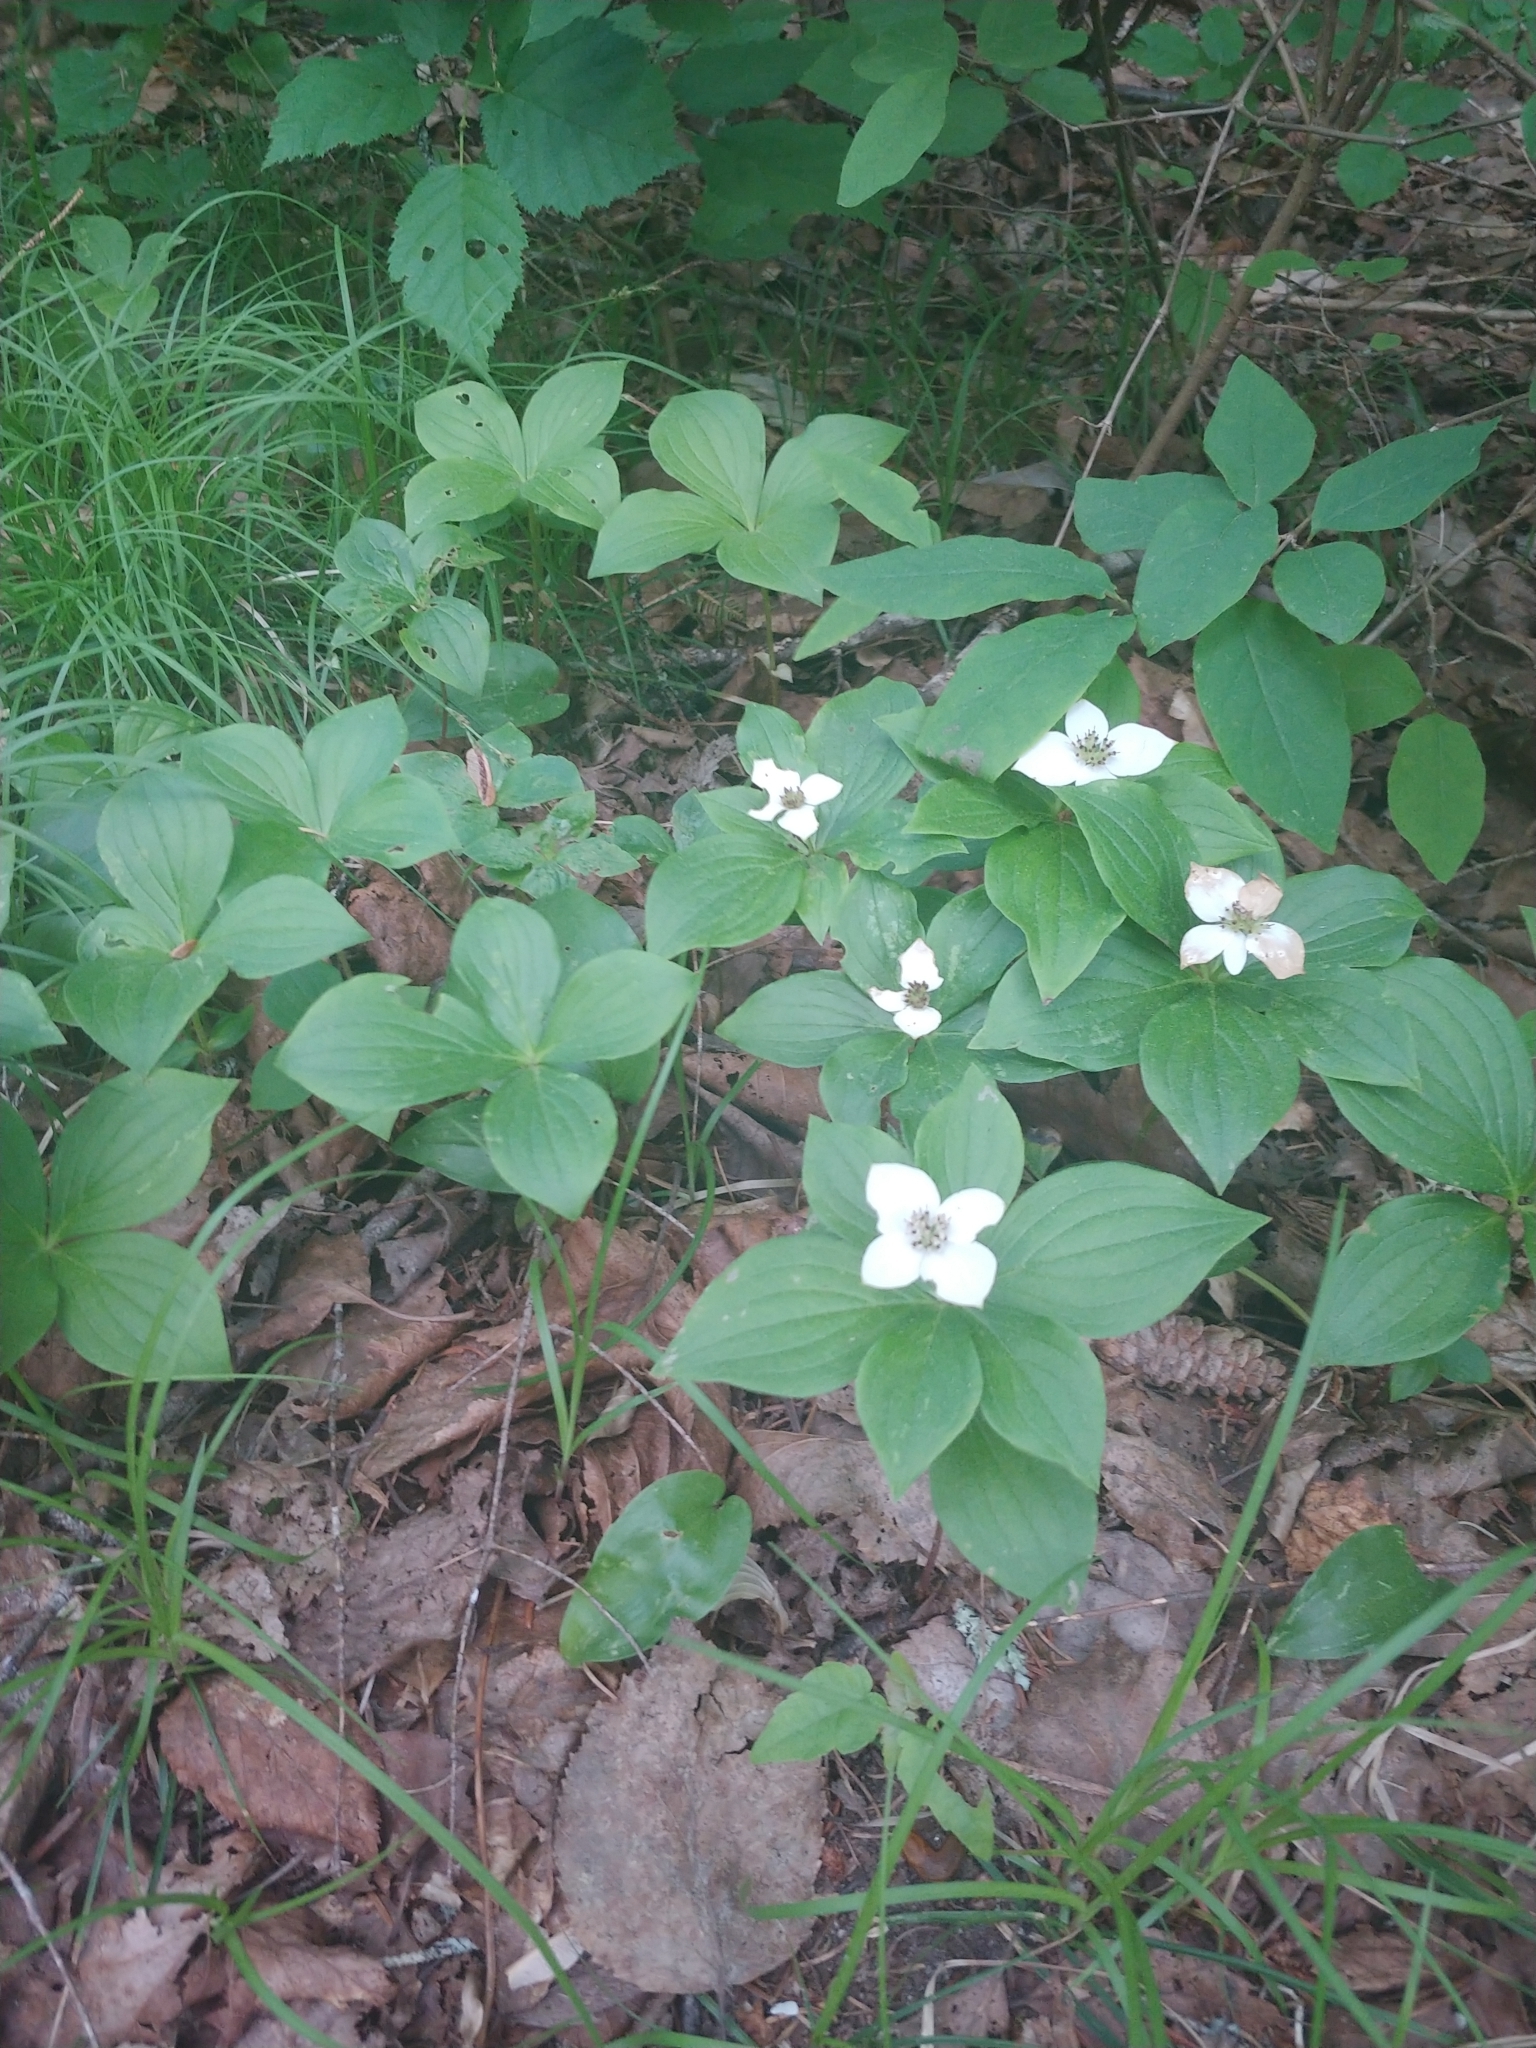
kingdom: Plantae
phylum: Tracheophyta
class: Magnoliopsida
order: Cornales
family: Cornaceae
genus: Cornus
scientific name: Cornus canadensis
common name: Creeping dogwood
